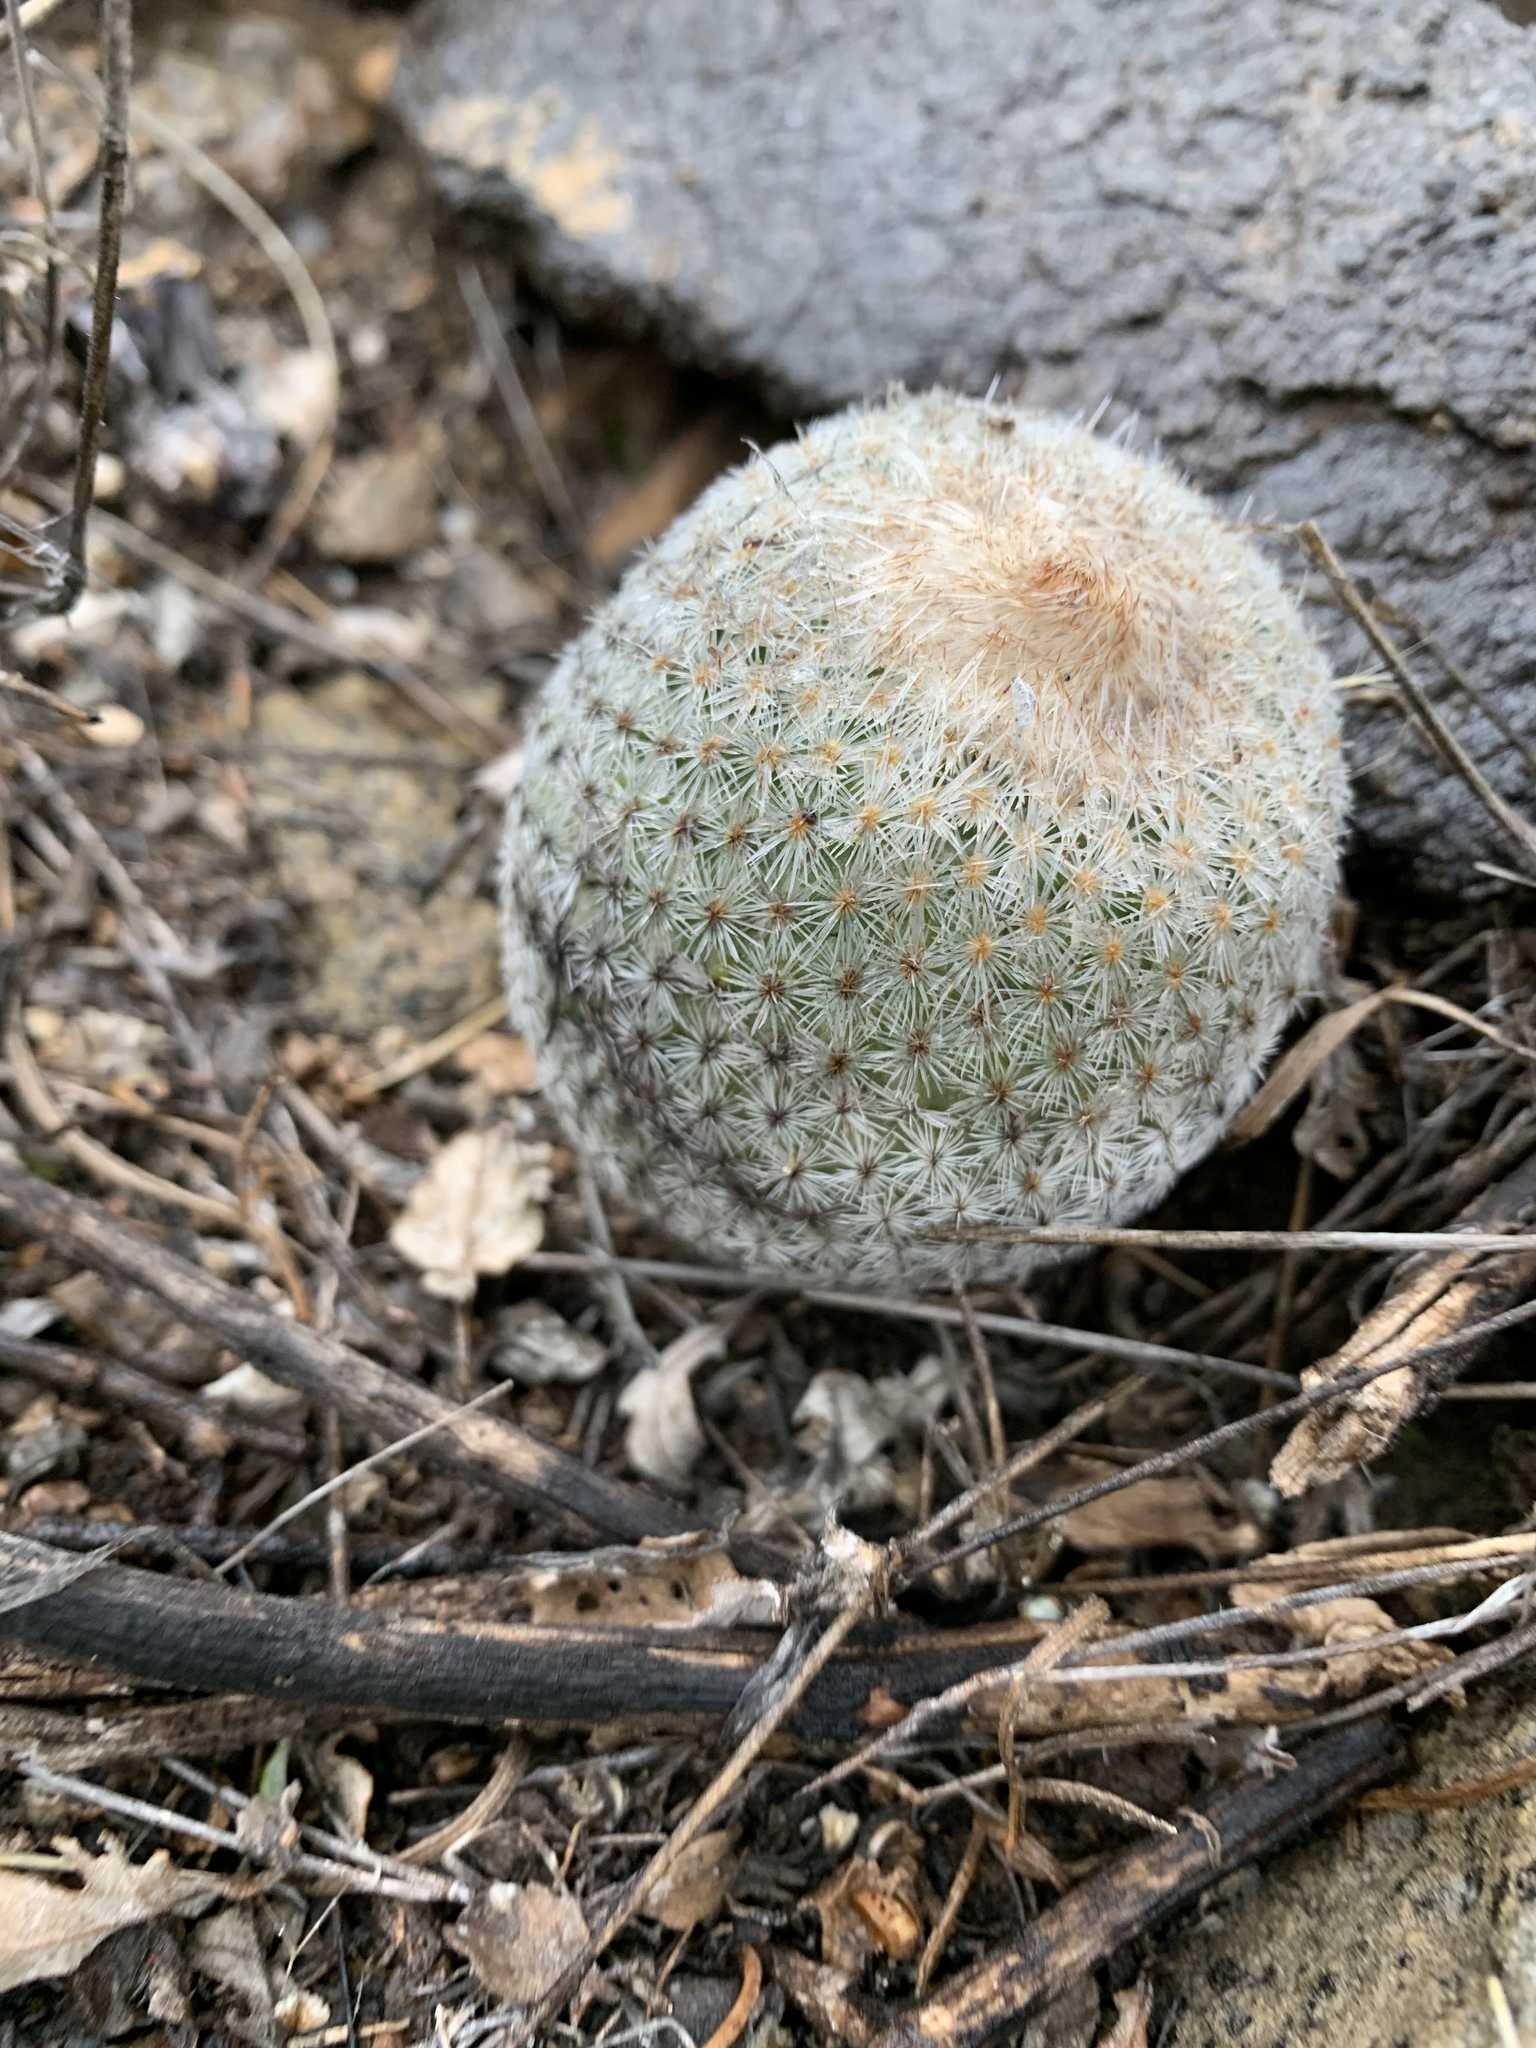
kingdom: Plantae
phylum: Tracheophyta
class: Magnoliopsida
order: Caryophyllales
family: Cactaceae
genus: Epithelantha
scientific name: Epithelantha micromeris
